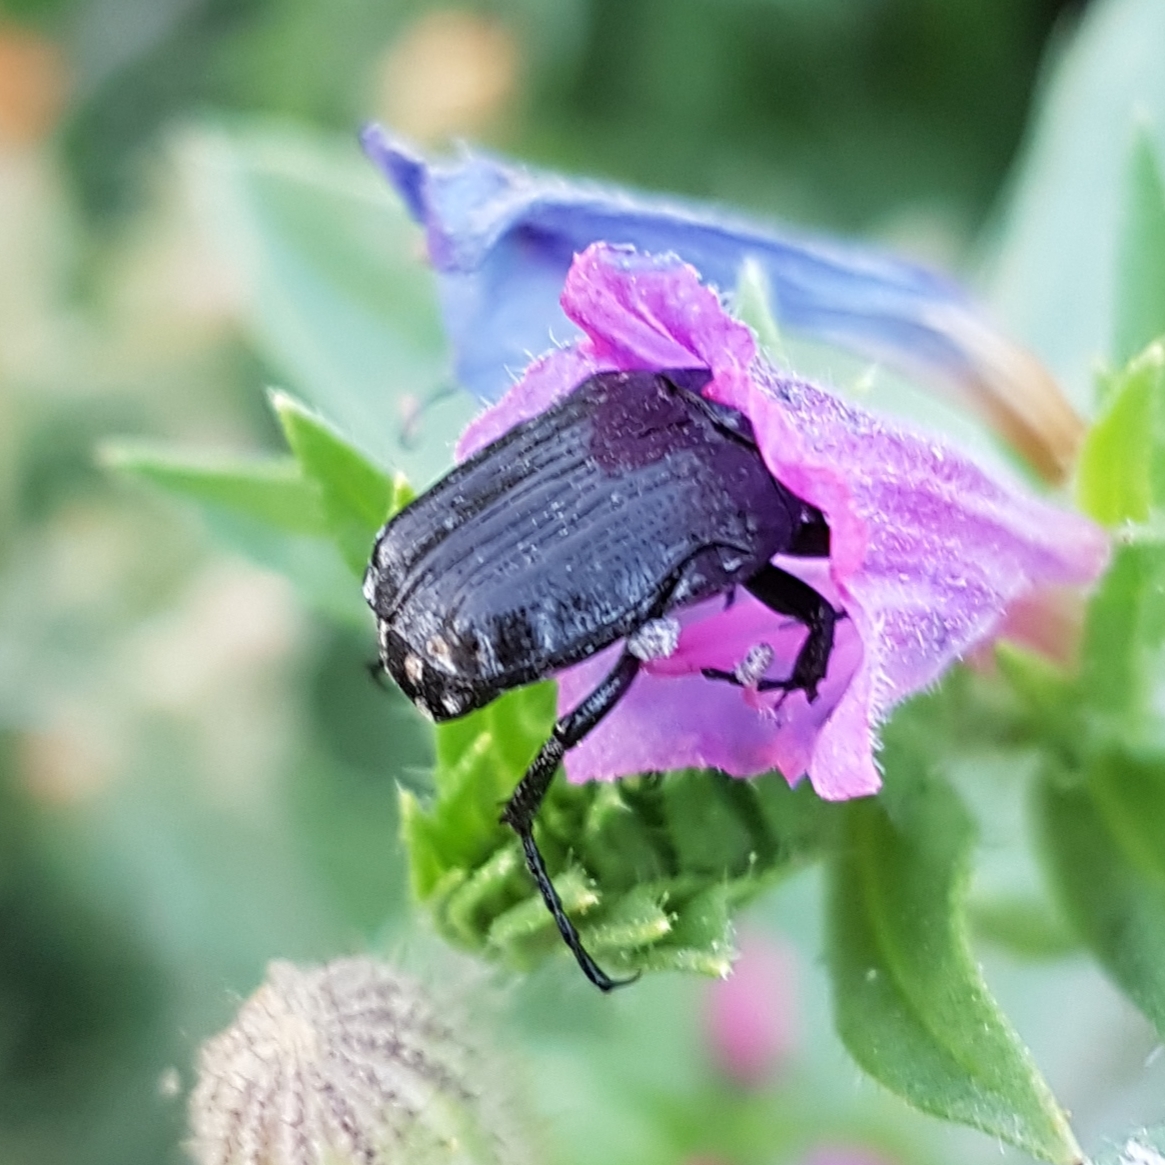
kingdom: Animalia
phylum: Arthropoda
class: Insecta
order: Coleoptera
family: Scarabaeidae
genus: Oxythyrea
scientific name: Oxythyrea funesta
